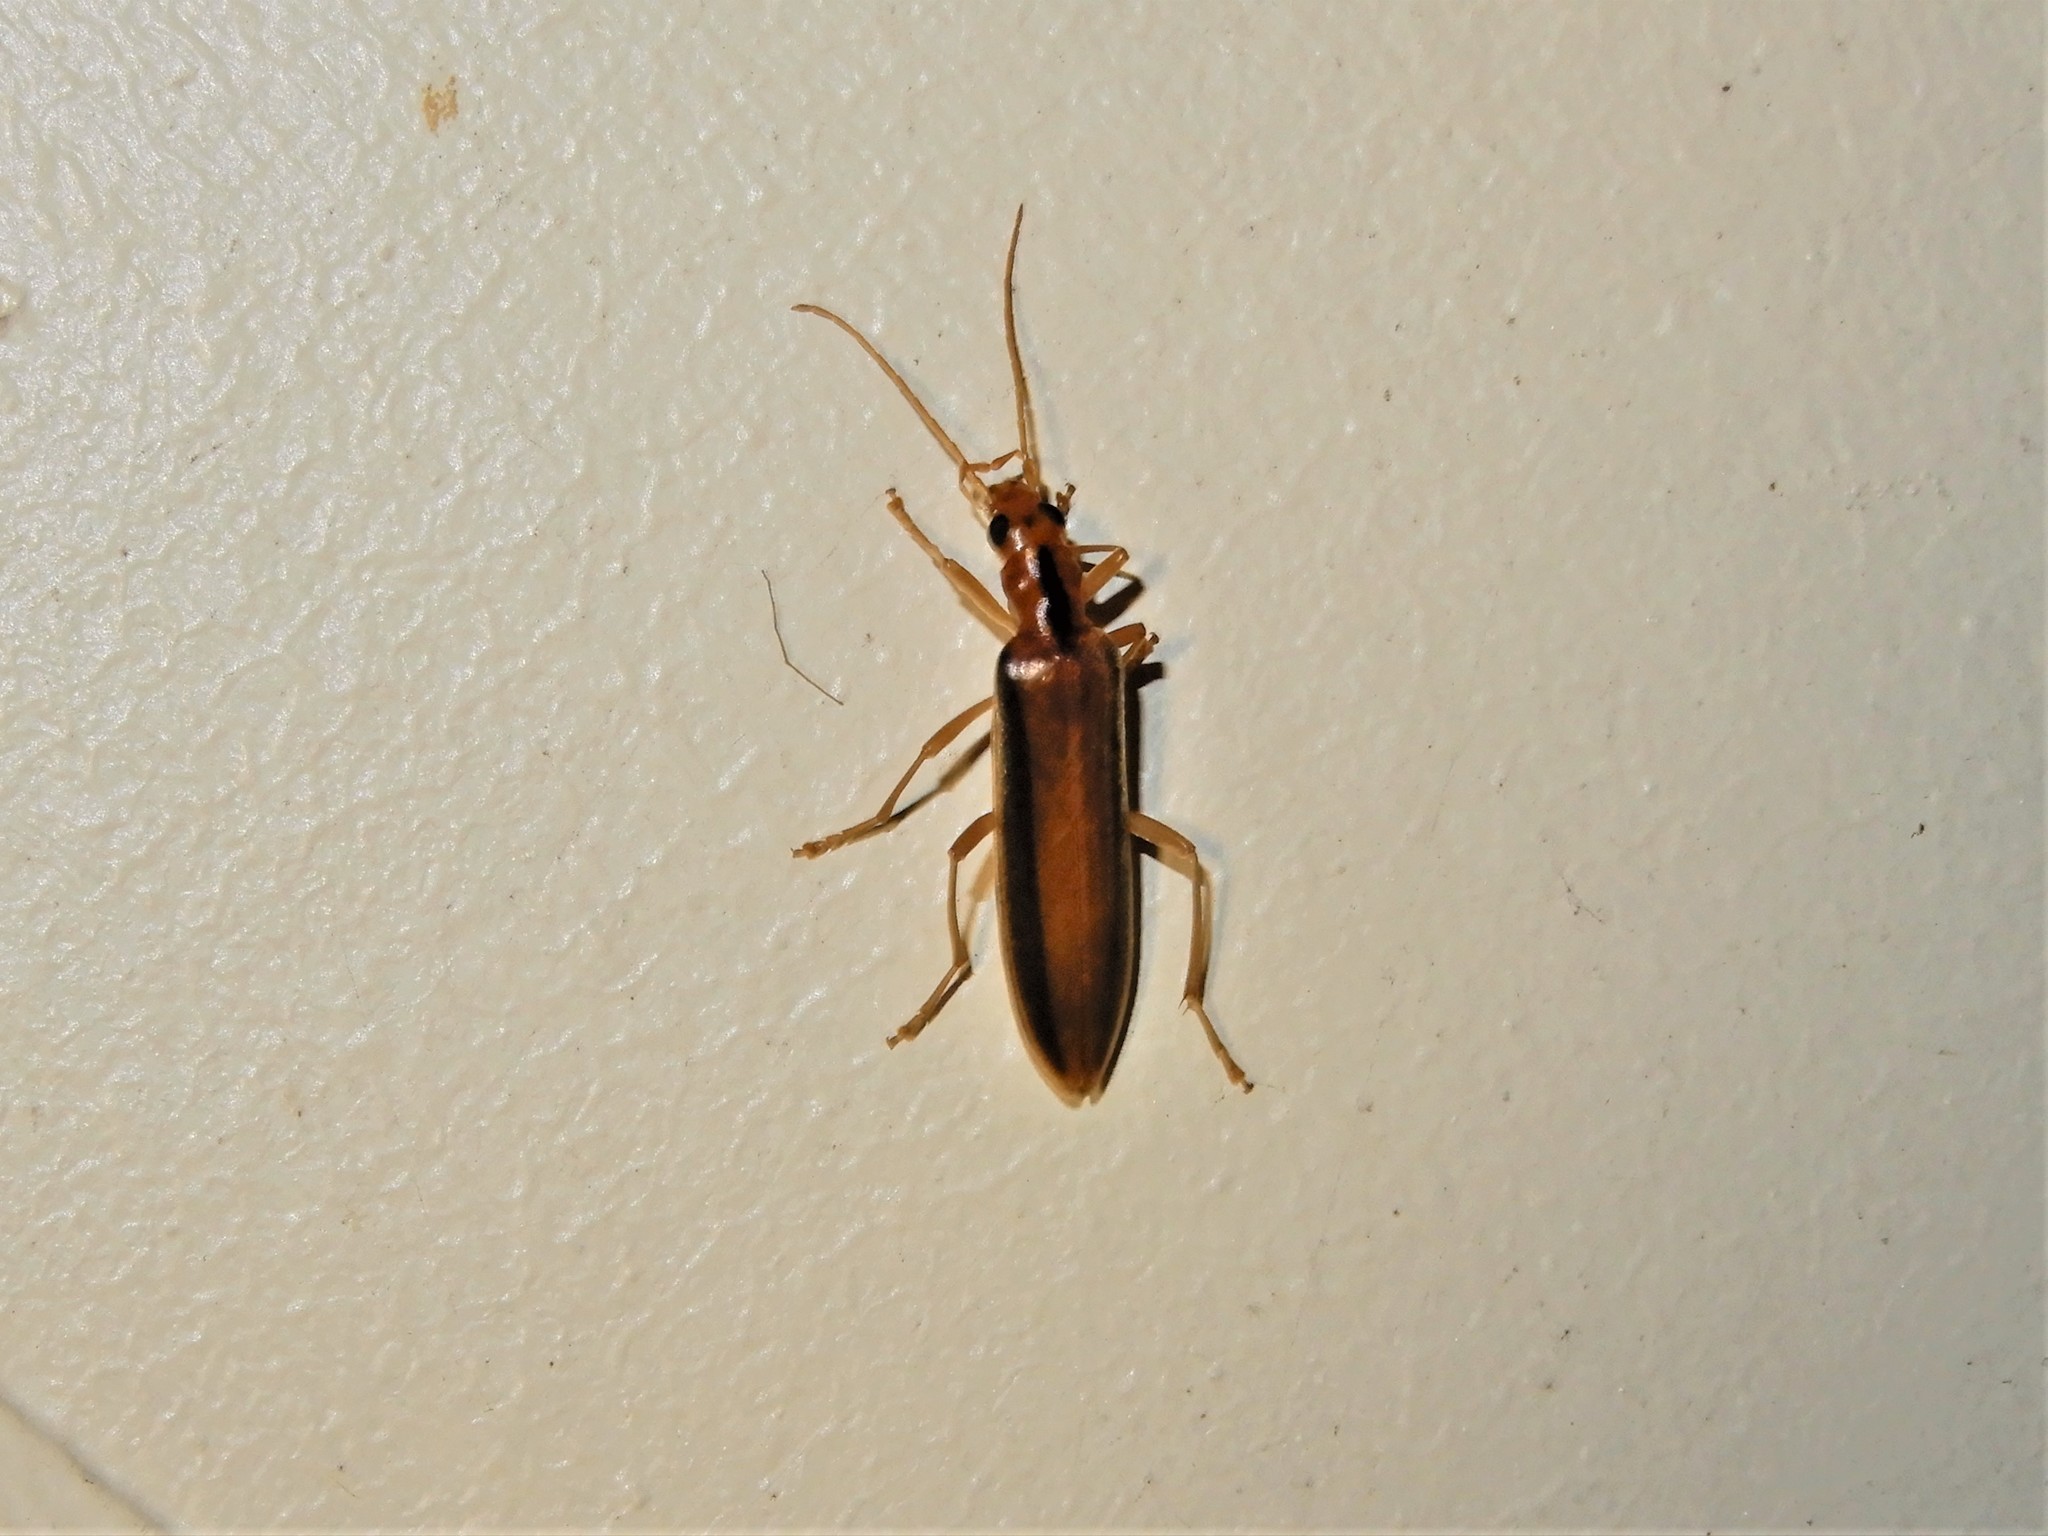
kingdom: Animalia
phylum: Arthropoda
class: Insecta
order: Coleoptera
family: Oedemeridae
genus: Thelyphassa
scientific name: Thelyphassa
